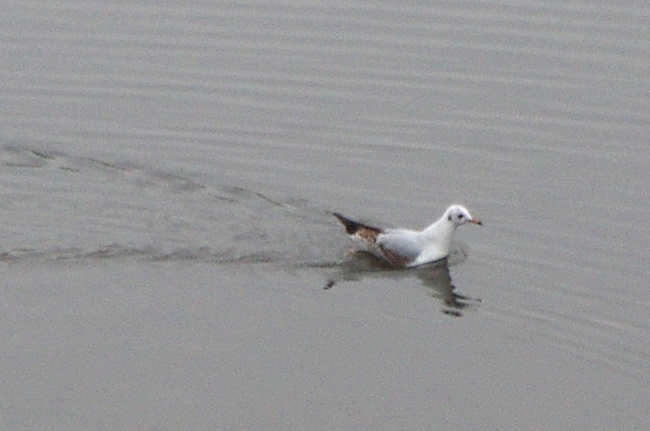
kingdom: Animalia
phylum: Chordata
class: Aves
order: Charadriiformes
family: Laridae
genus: Chroicocephalus
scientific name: Chroicocephalus ridibundus
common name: Black-headed gull
